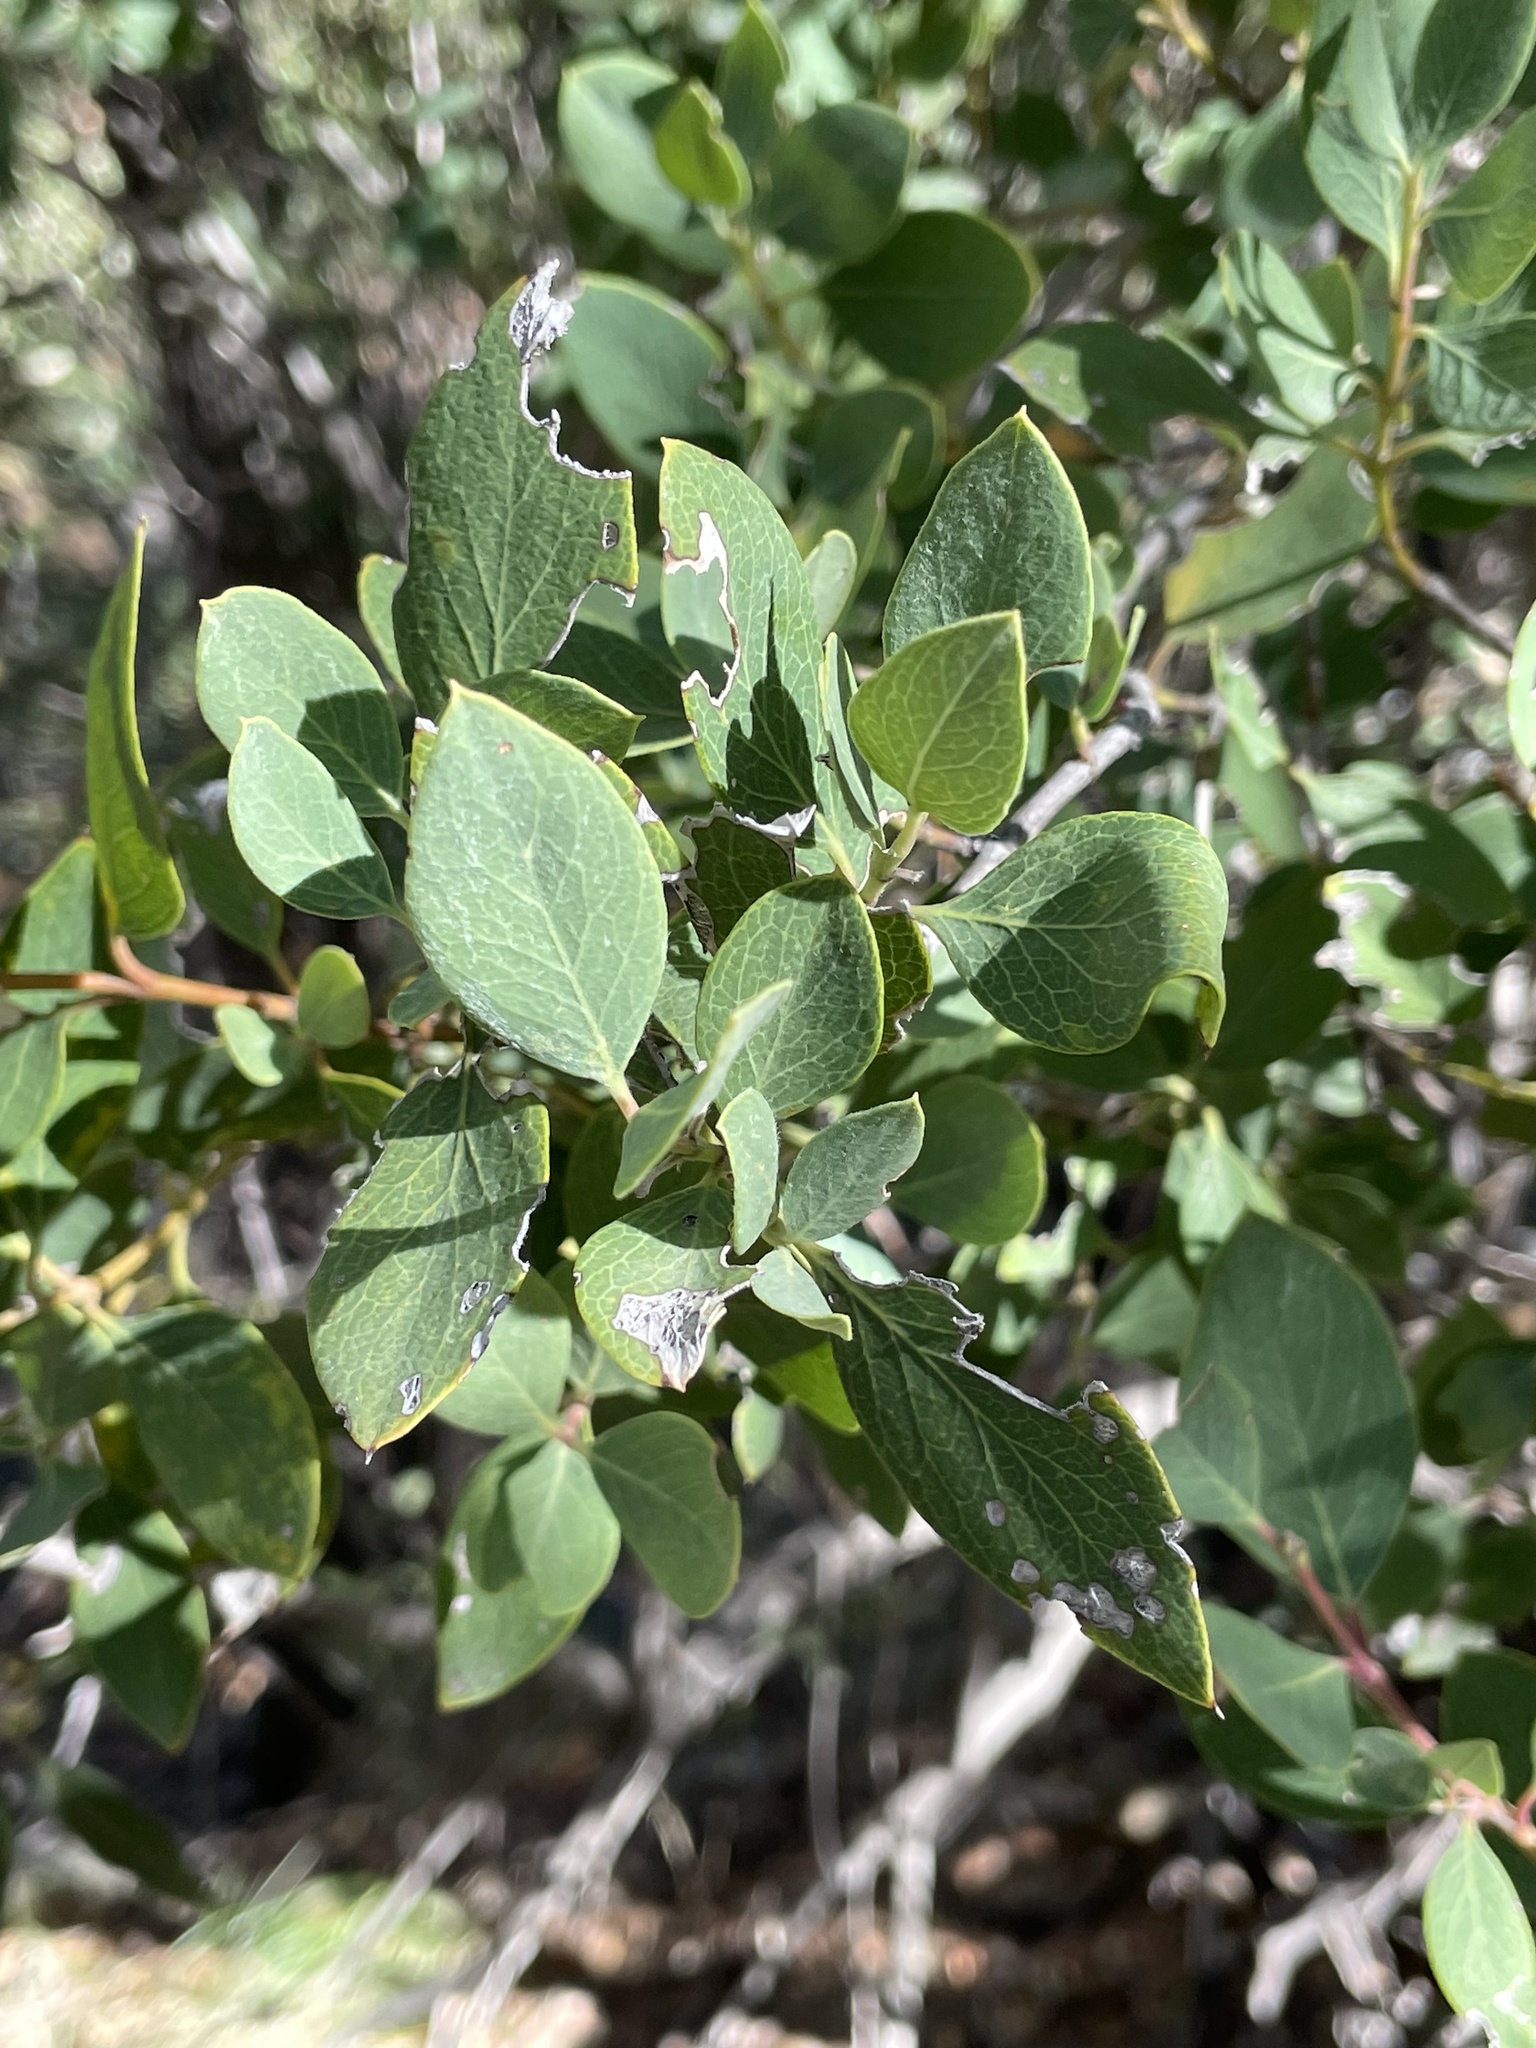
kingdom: Plantae
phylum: Tracheophyta
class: Magnoliopsida
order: Garryales
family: Garryaceae
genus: Garrya
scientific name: Garrya wrightii
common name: Wright's silktassel
